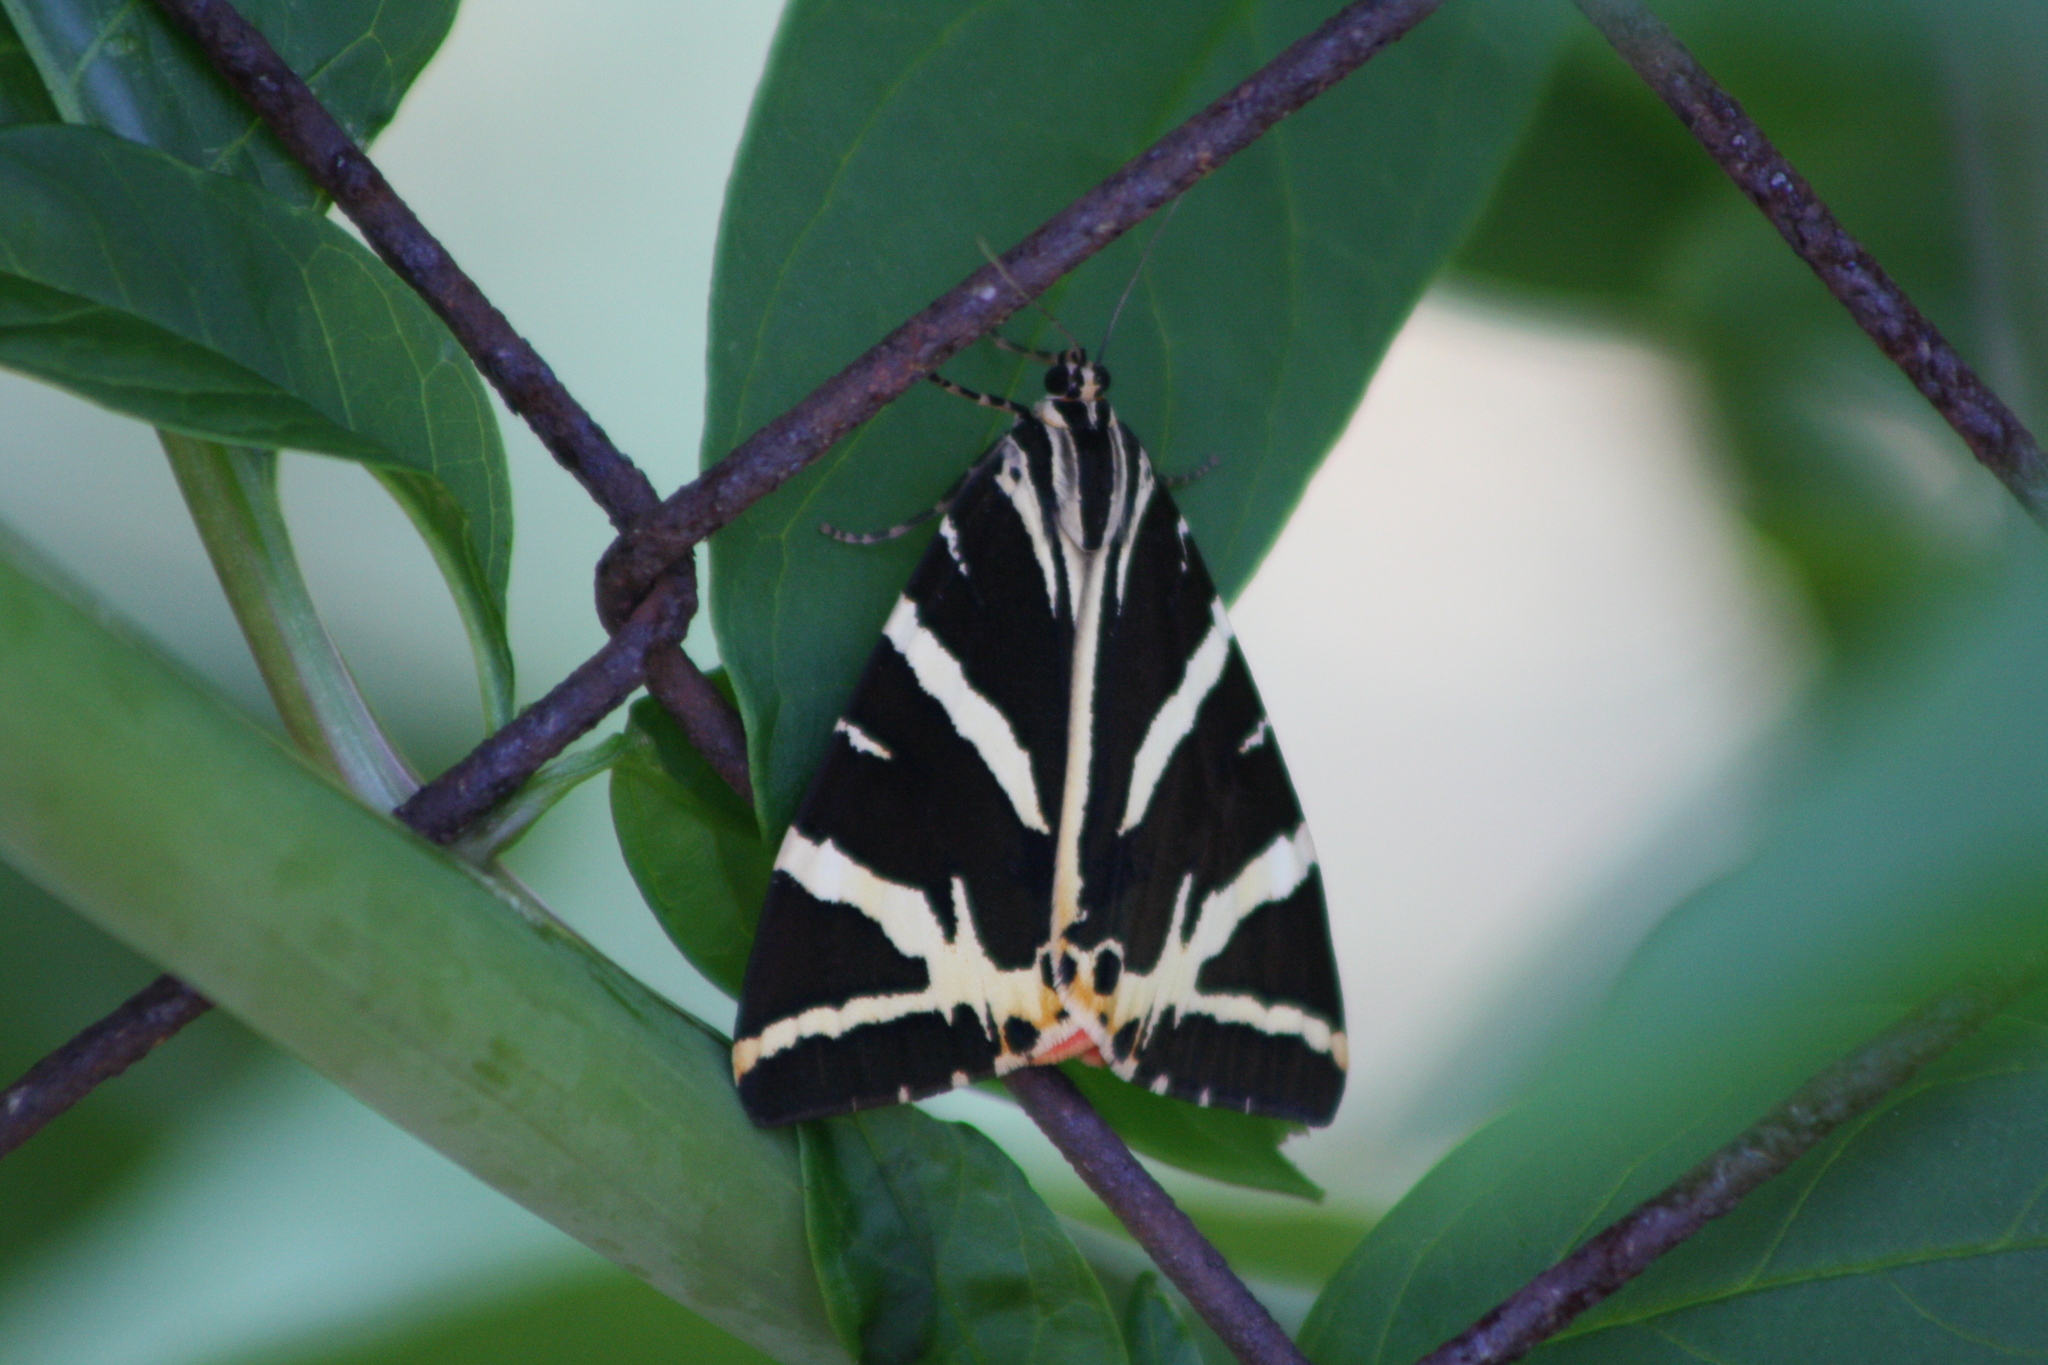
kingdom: Animalia
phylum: Arthropoda
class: Insecta
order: Lepidoptera
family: Erebidae
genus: Euplagia
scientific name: Euplagia quadripunctaria
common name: Jersey tiger
